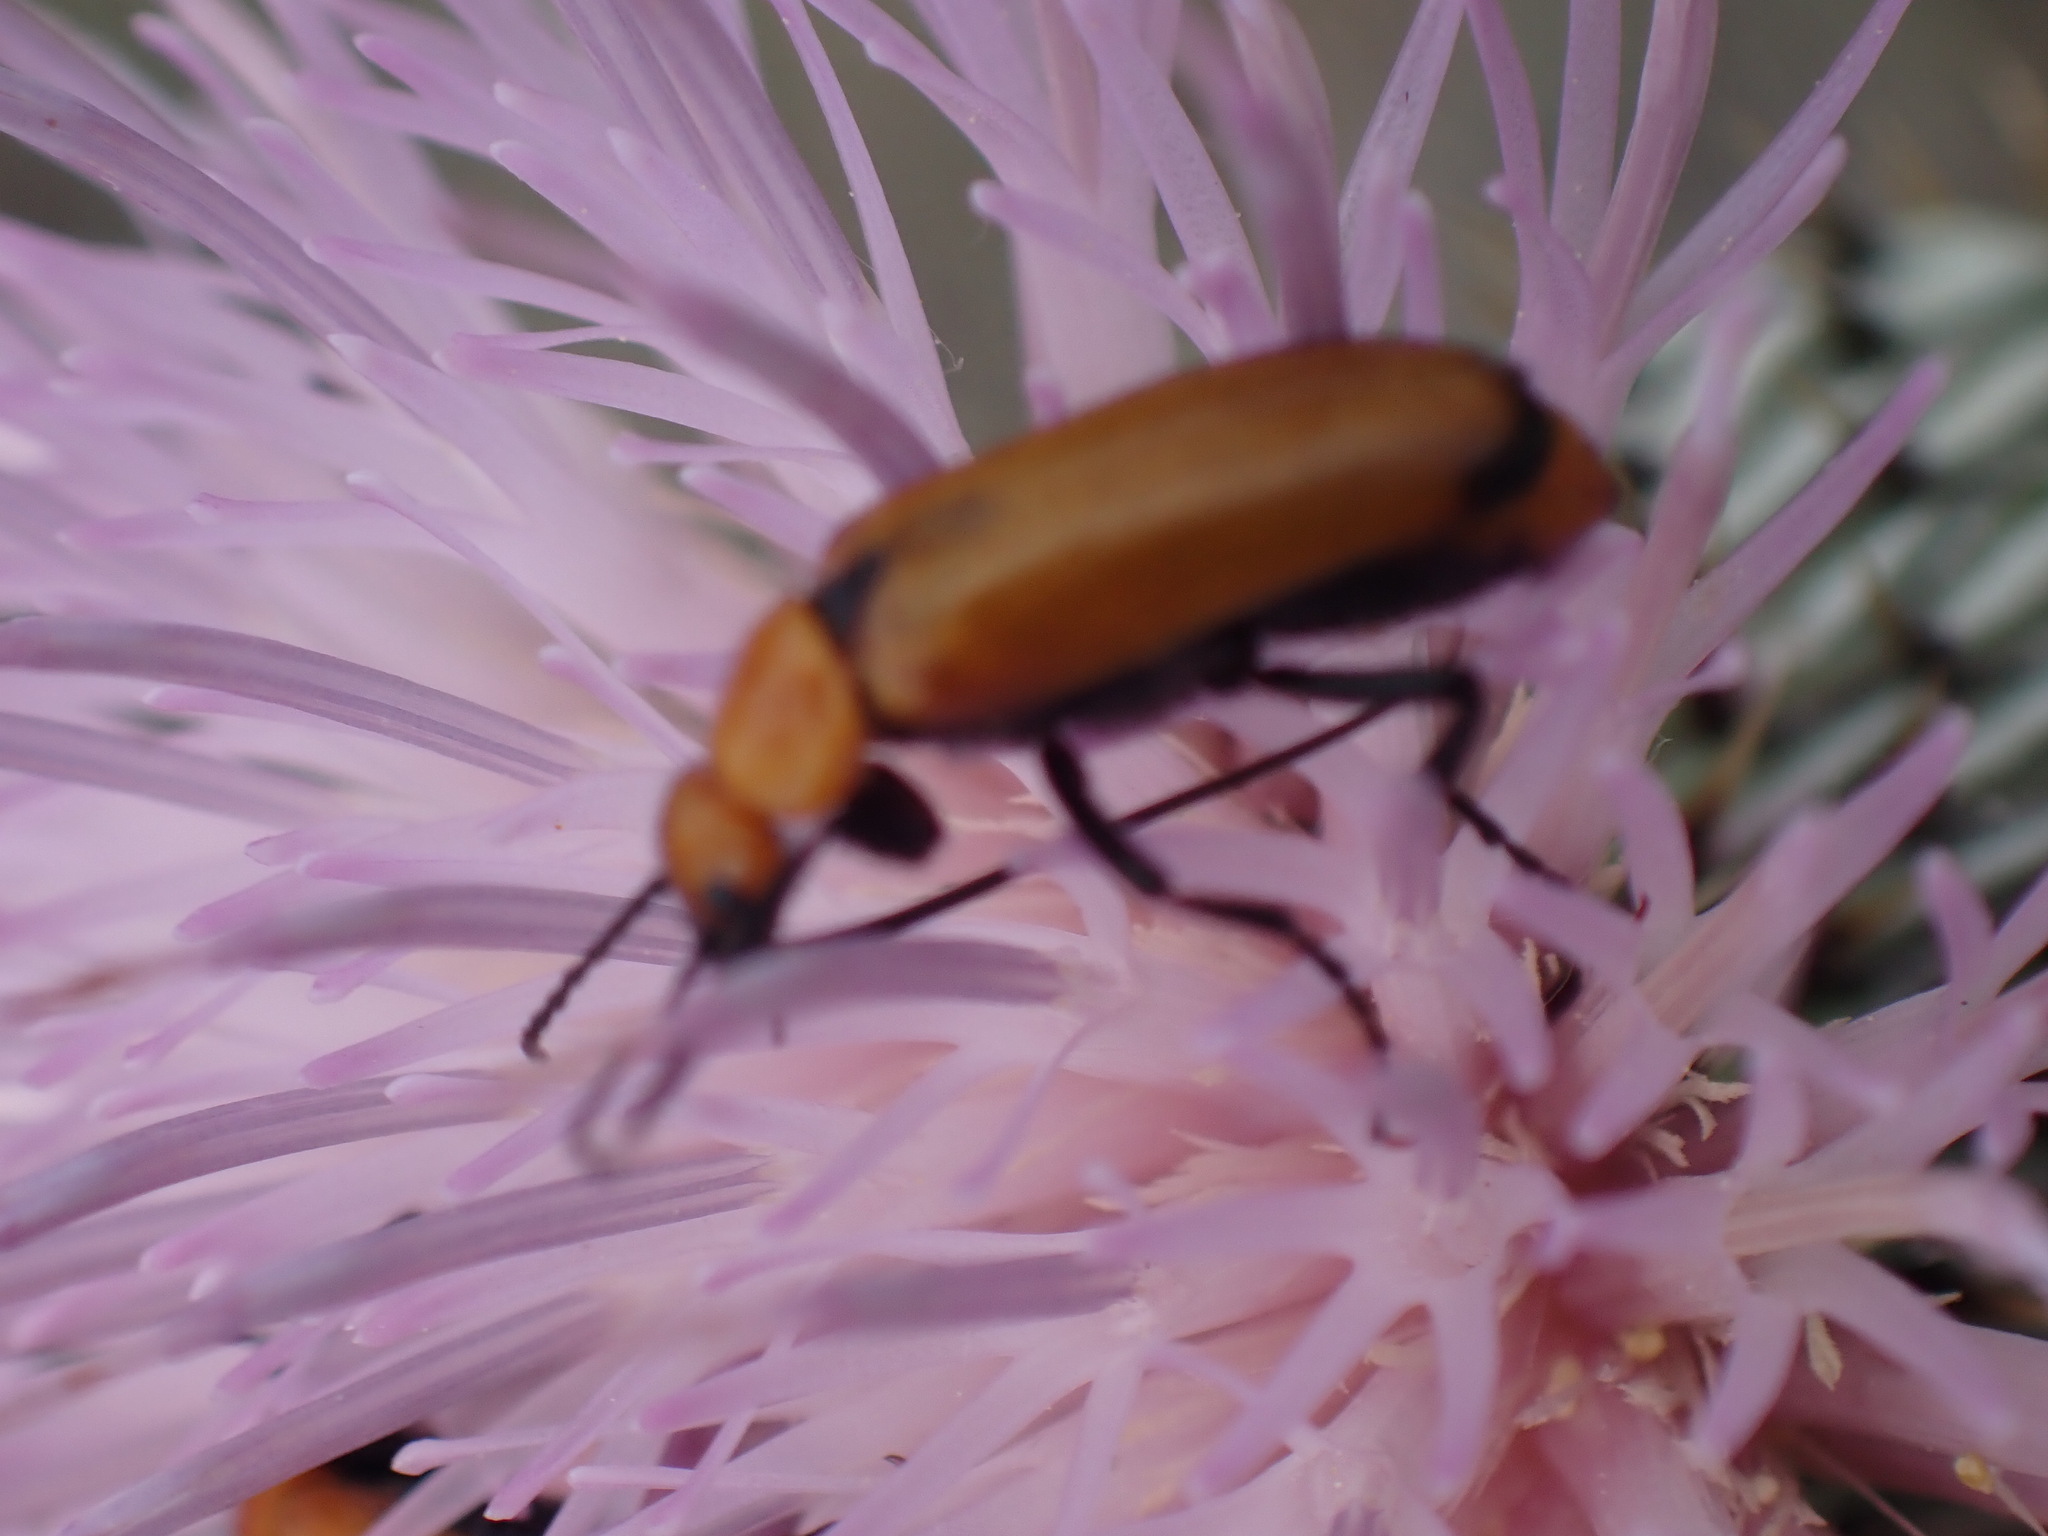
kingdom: Animalia
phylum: Arthropoda
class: Insecta
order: Coleoptera
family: Meloidae
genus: Nemognatha
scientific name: Nemognatha lutea
